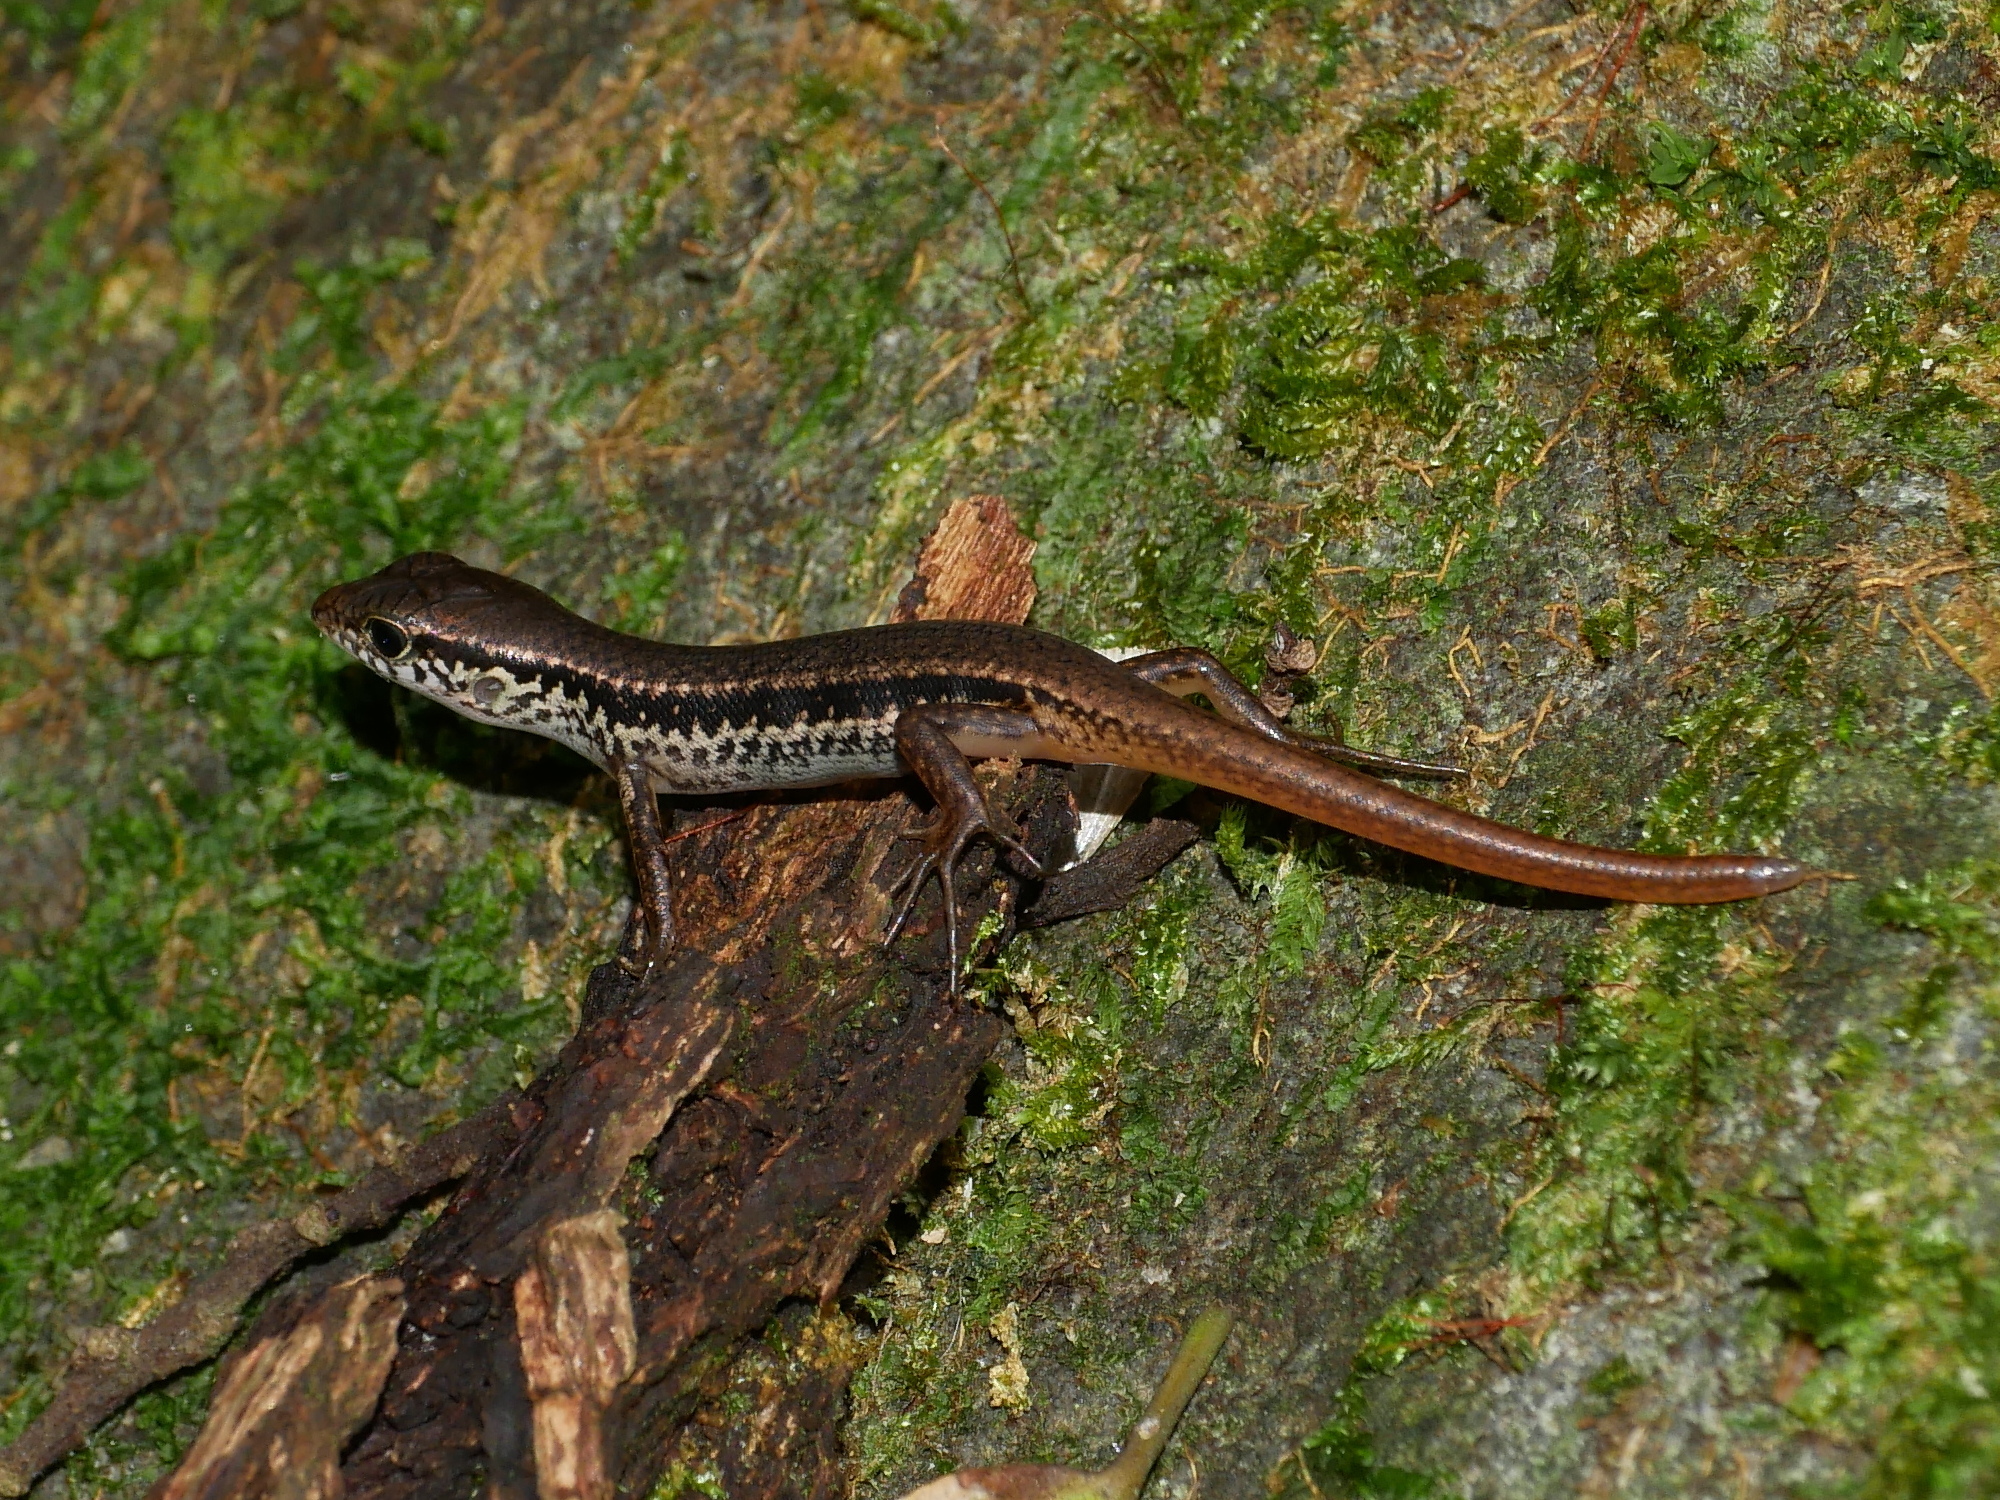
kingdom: Animalia
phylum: Chordata
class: Squamata
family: Scincidae
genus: Sphenomorphus
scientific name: Sphenomorphus indicus
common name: Himalayan forest skink
